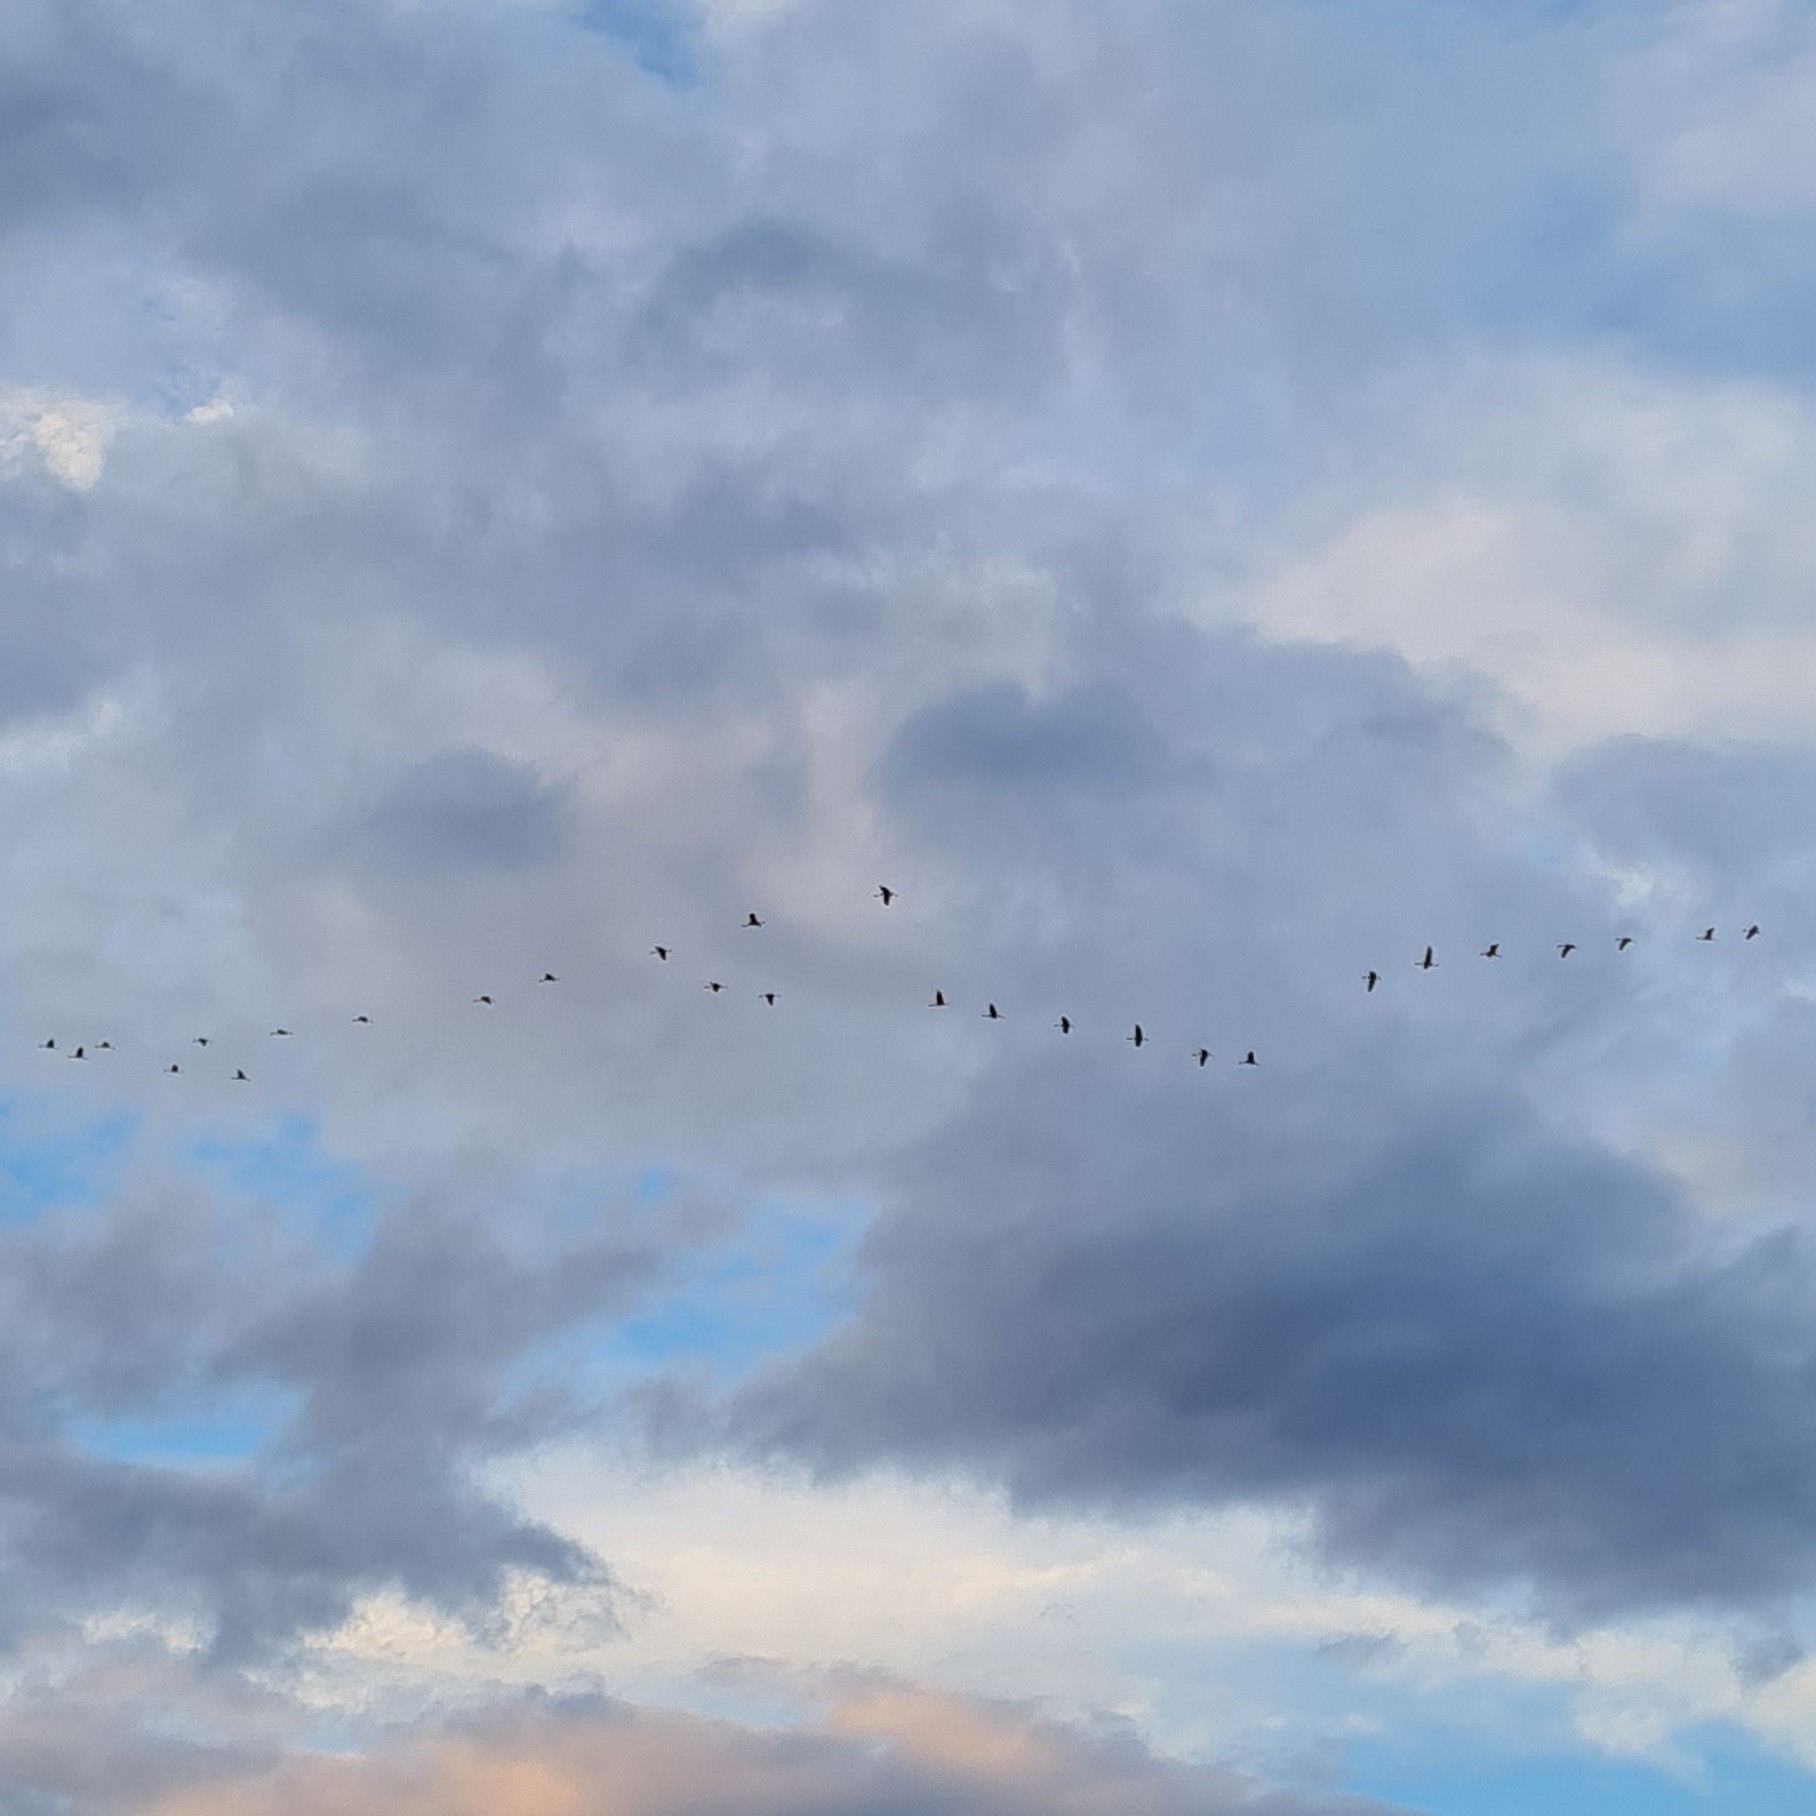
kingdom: Animalia
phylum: Chordata
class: Aves
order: Gruiformes
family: Gruidae
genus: Grus
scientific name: Grus grus
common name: Common crane
